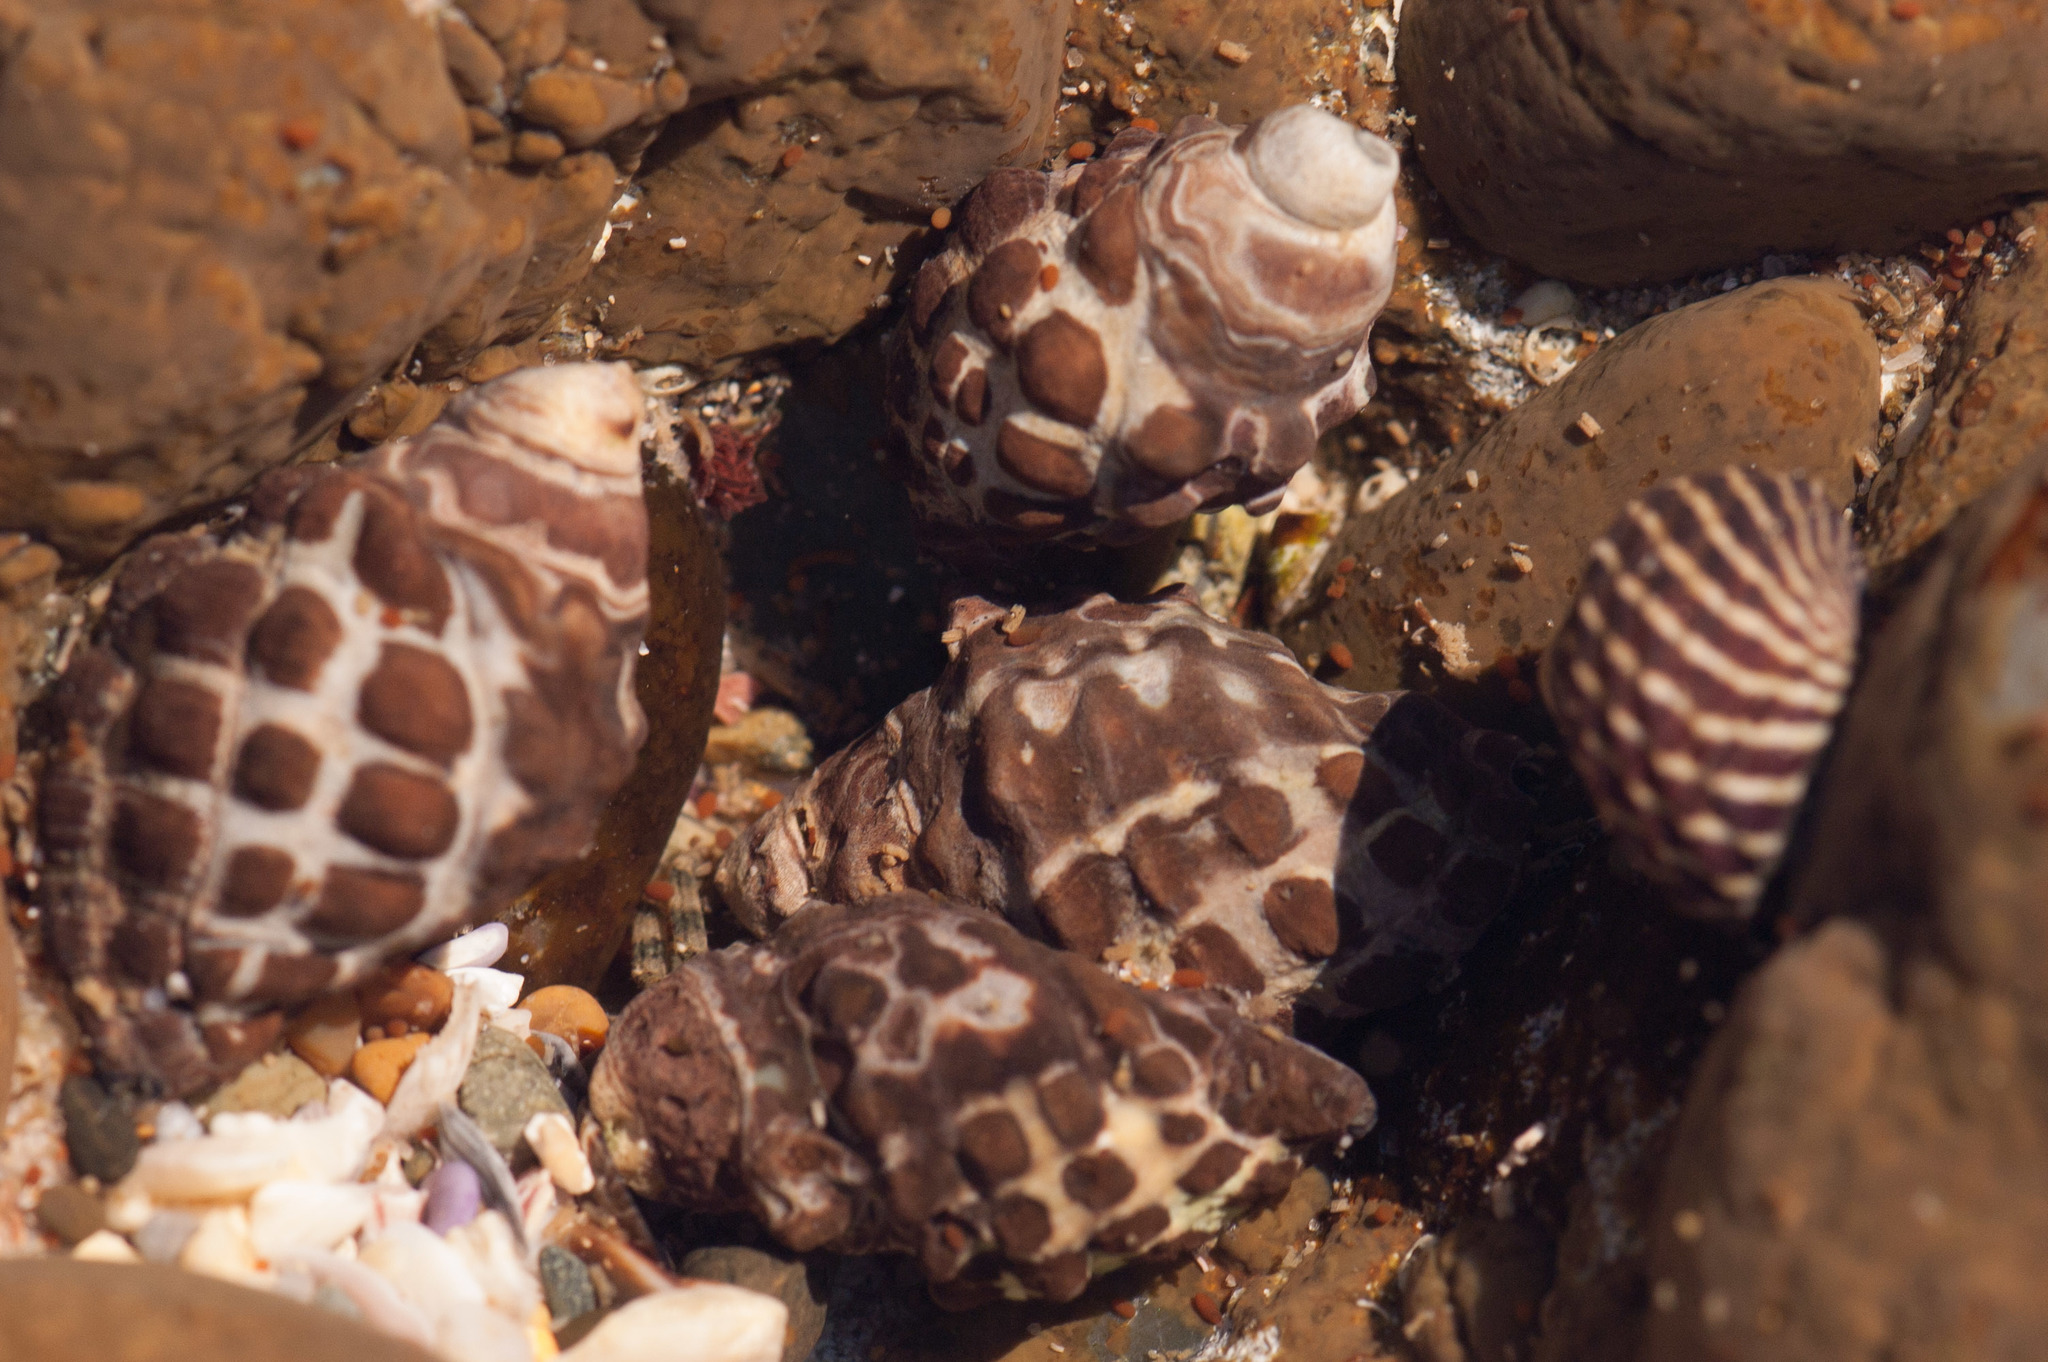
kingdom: Animalia
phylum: Mollusca
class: Gastropoda
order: Neogastropoda
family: Muricidae
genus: Tenguella
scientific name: Tenguella marginalba
